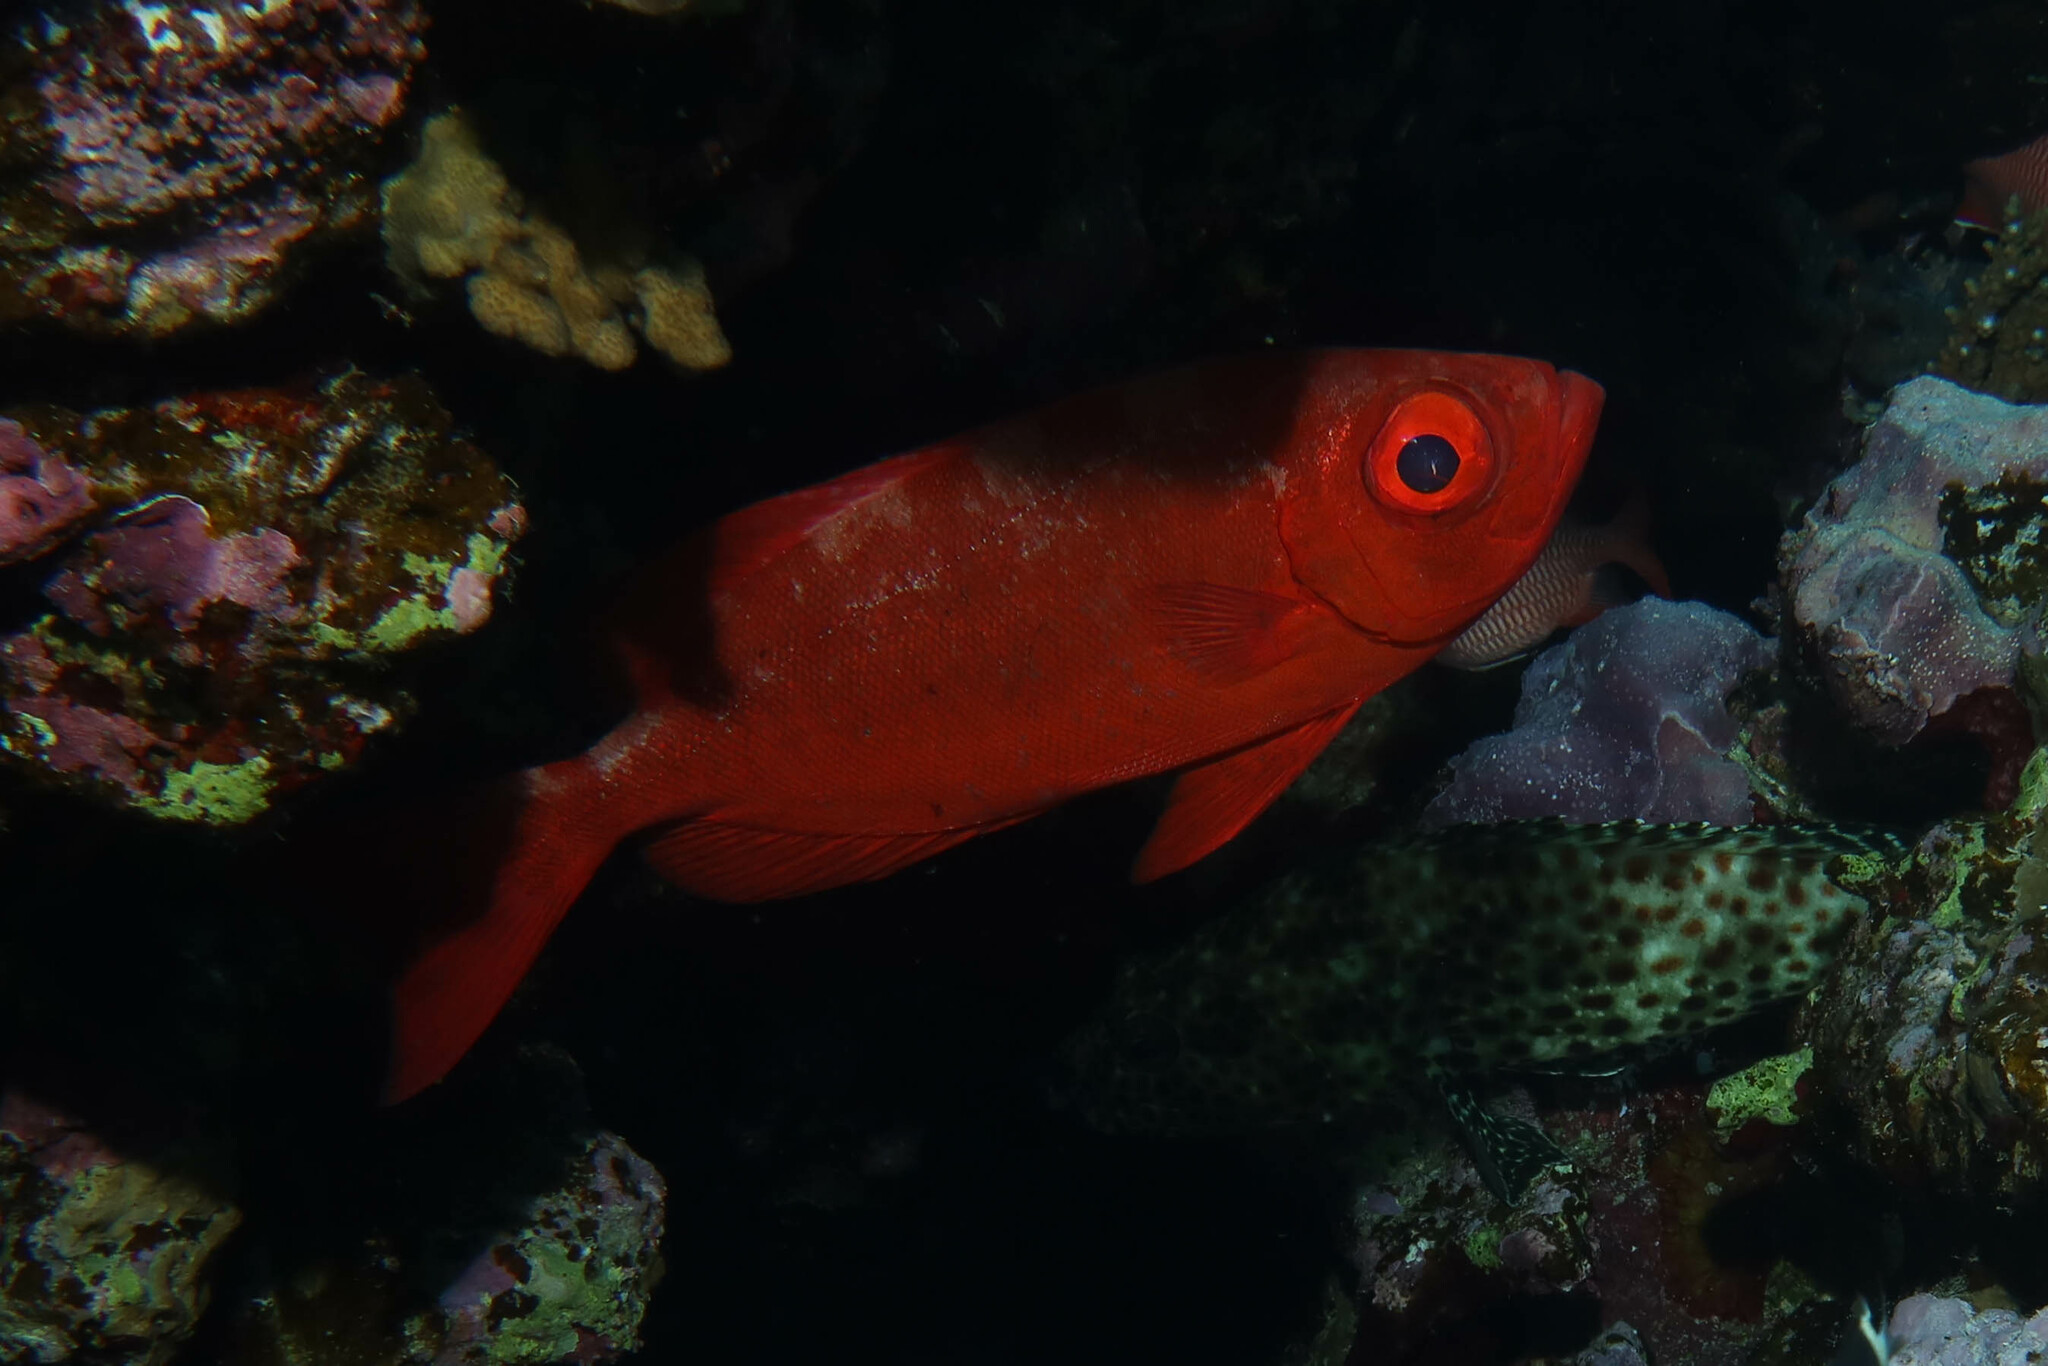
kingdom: Animalia
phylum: Chordata
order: Perciformes
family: Priacanthidae
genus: Priacanthus
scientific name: Priacanthus hamrur
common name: Moontail bullseye
